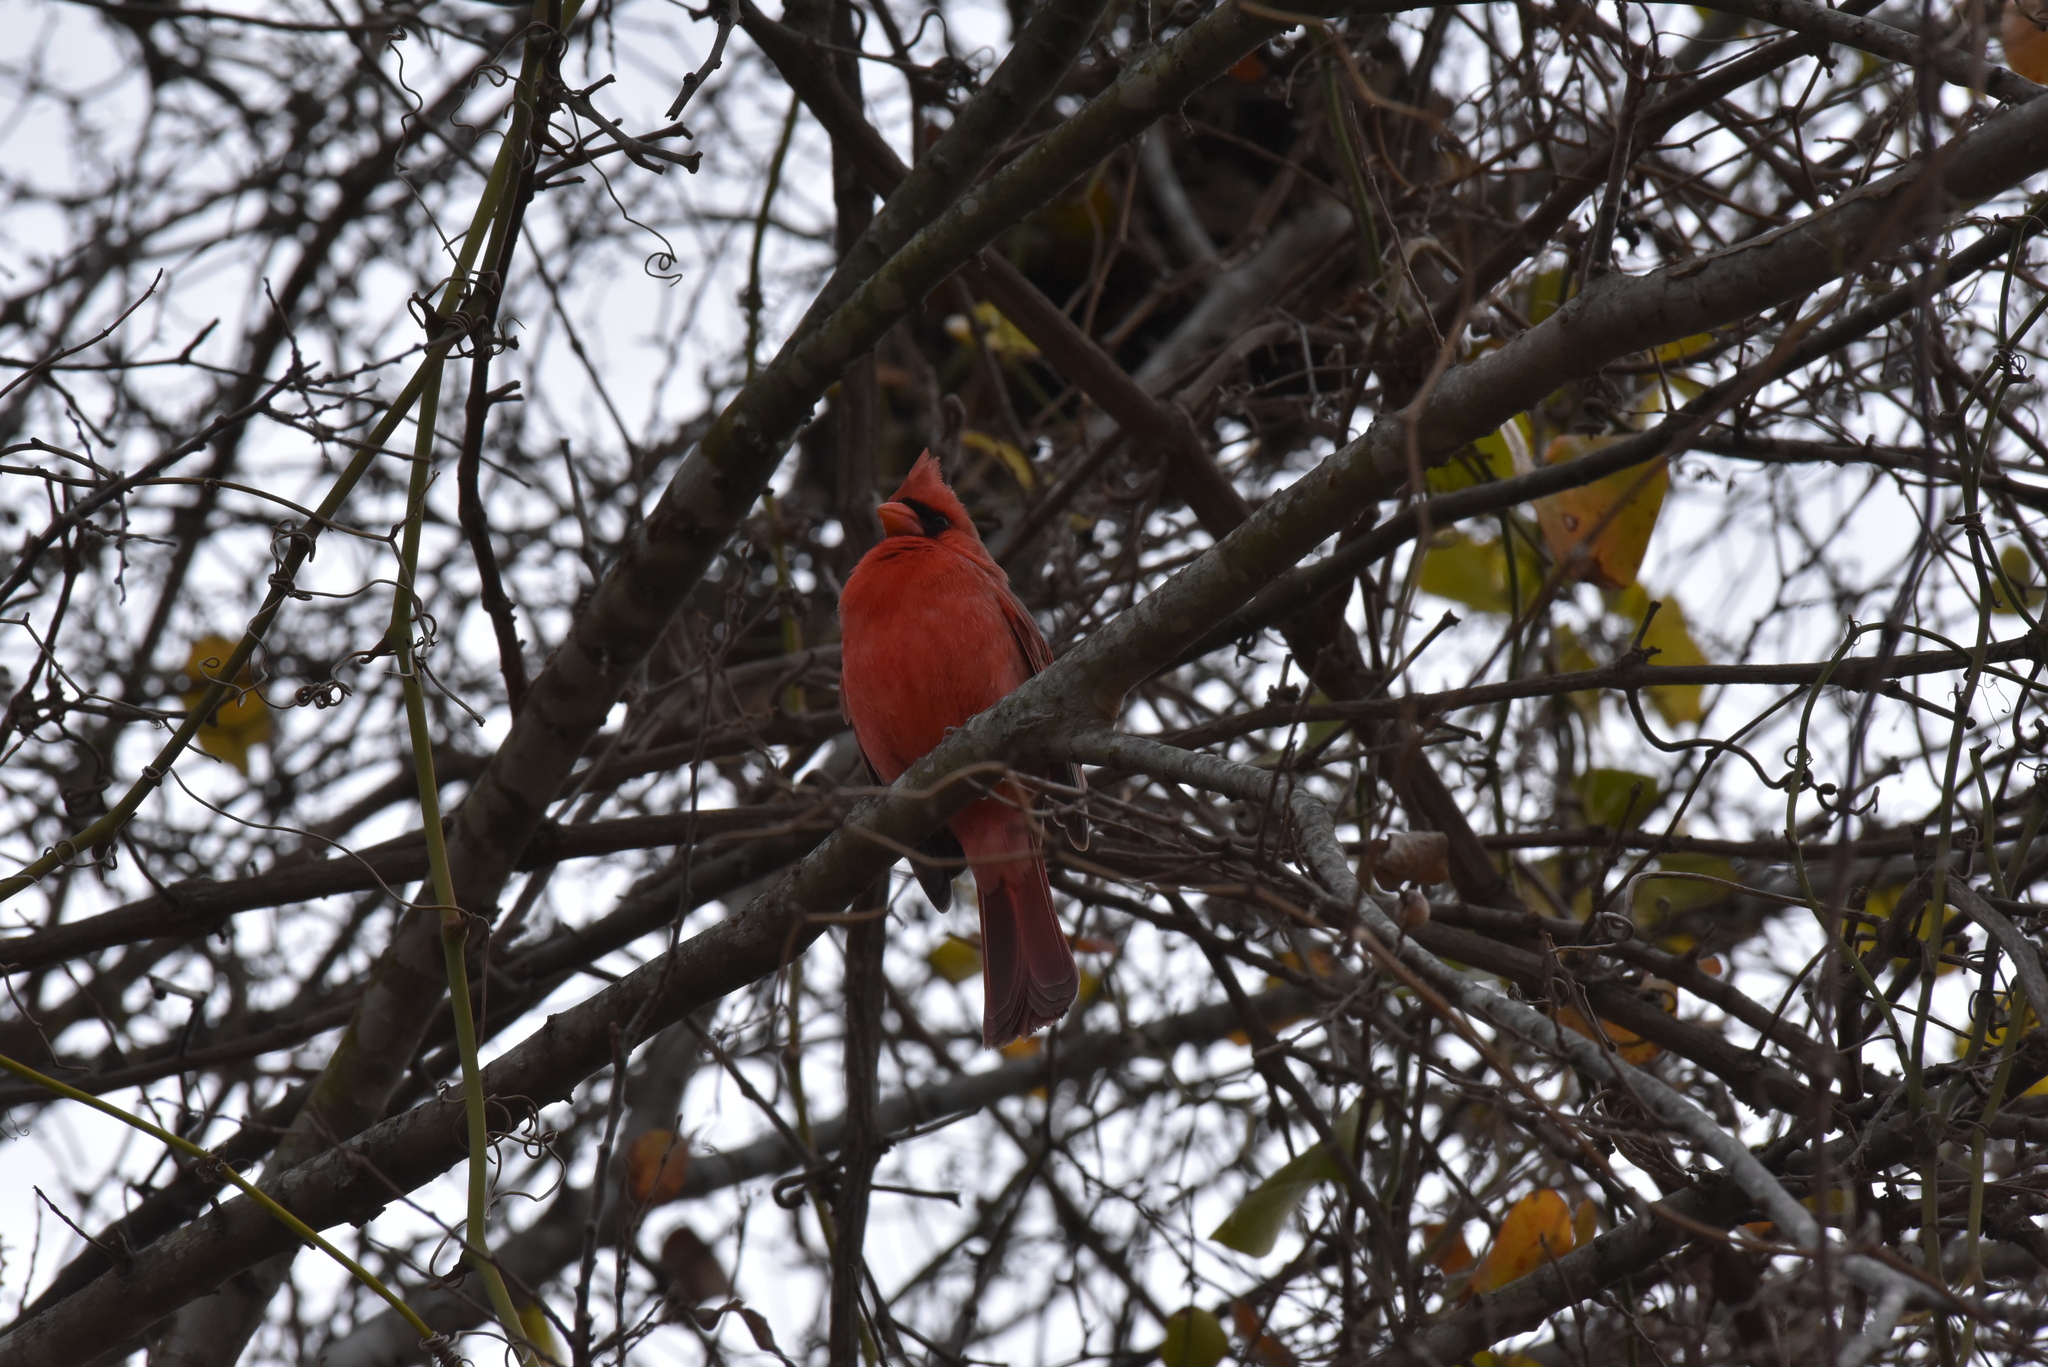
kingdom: Animalia
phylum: Chordata
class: Aves
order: Passeriformes
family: Cardinalidae
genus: Cardinalis
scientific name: Cardinalis cardinalis
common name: Northern cardinal
